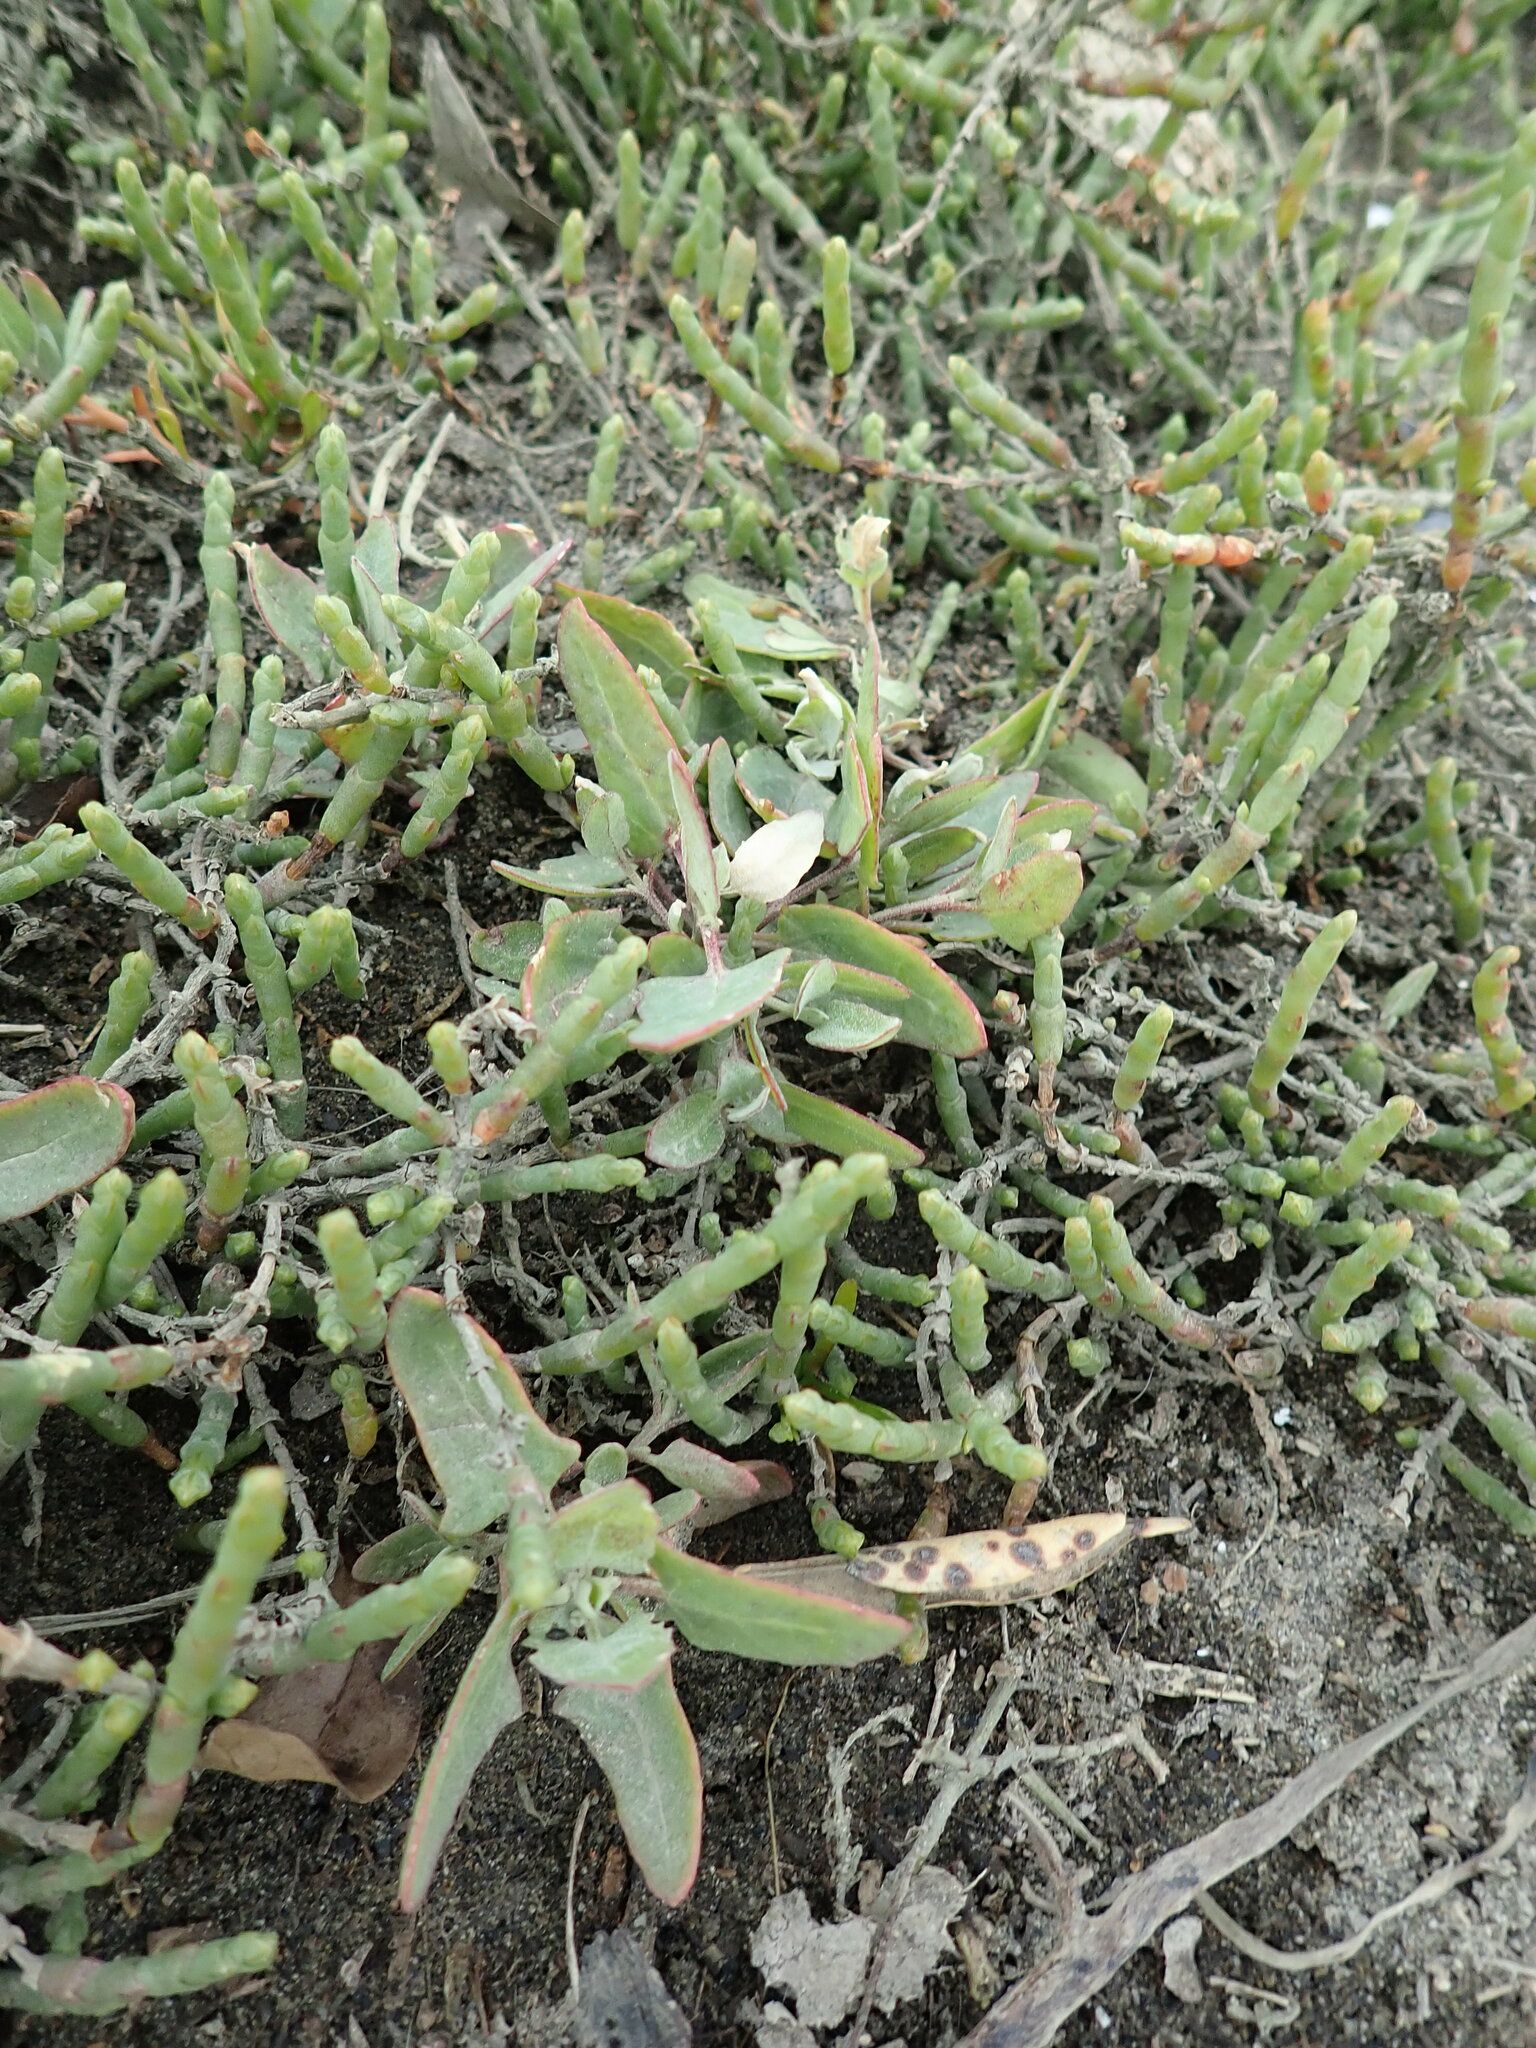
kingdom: Plantae
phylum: Tracheophyta
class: Magnoliopsida
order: Caryophyllales
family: Amaranthaceae
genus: Atriplex
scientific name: Atriplex prostrata
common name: Spear-leaved orache
